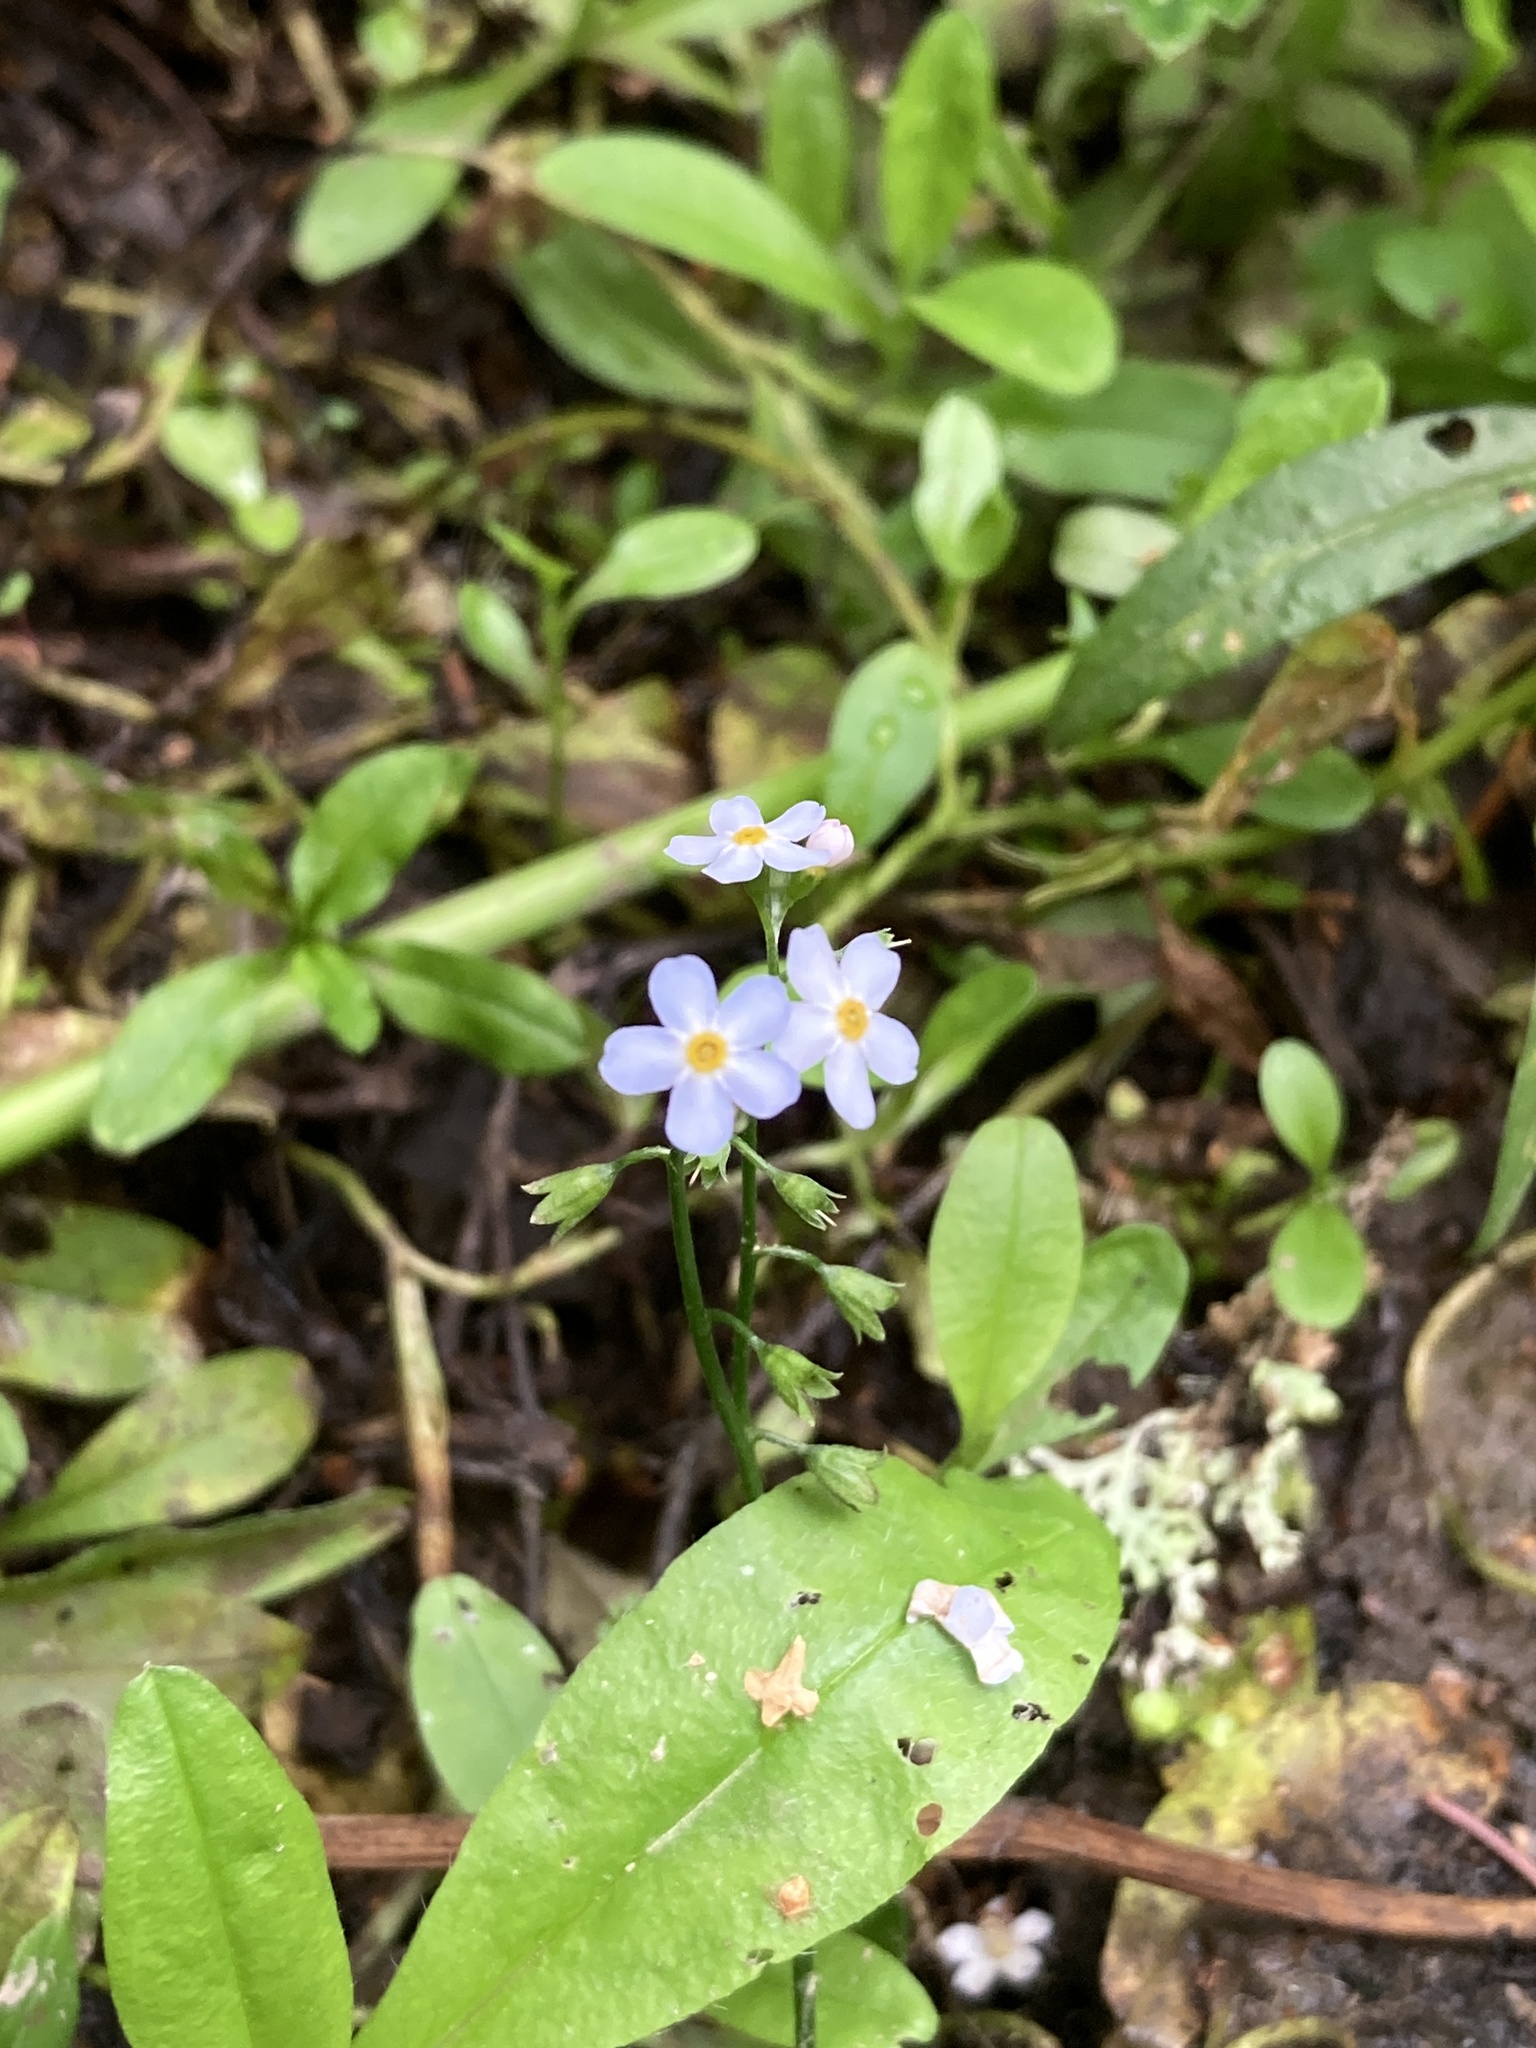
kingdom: Plantae
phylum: Tracheophyta
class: Magnoliopsida
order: Boraginales
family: Boraginaceae
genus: Myosotis
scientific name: Myosotis scorpioides
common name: Water forget-me-not
